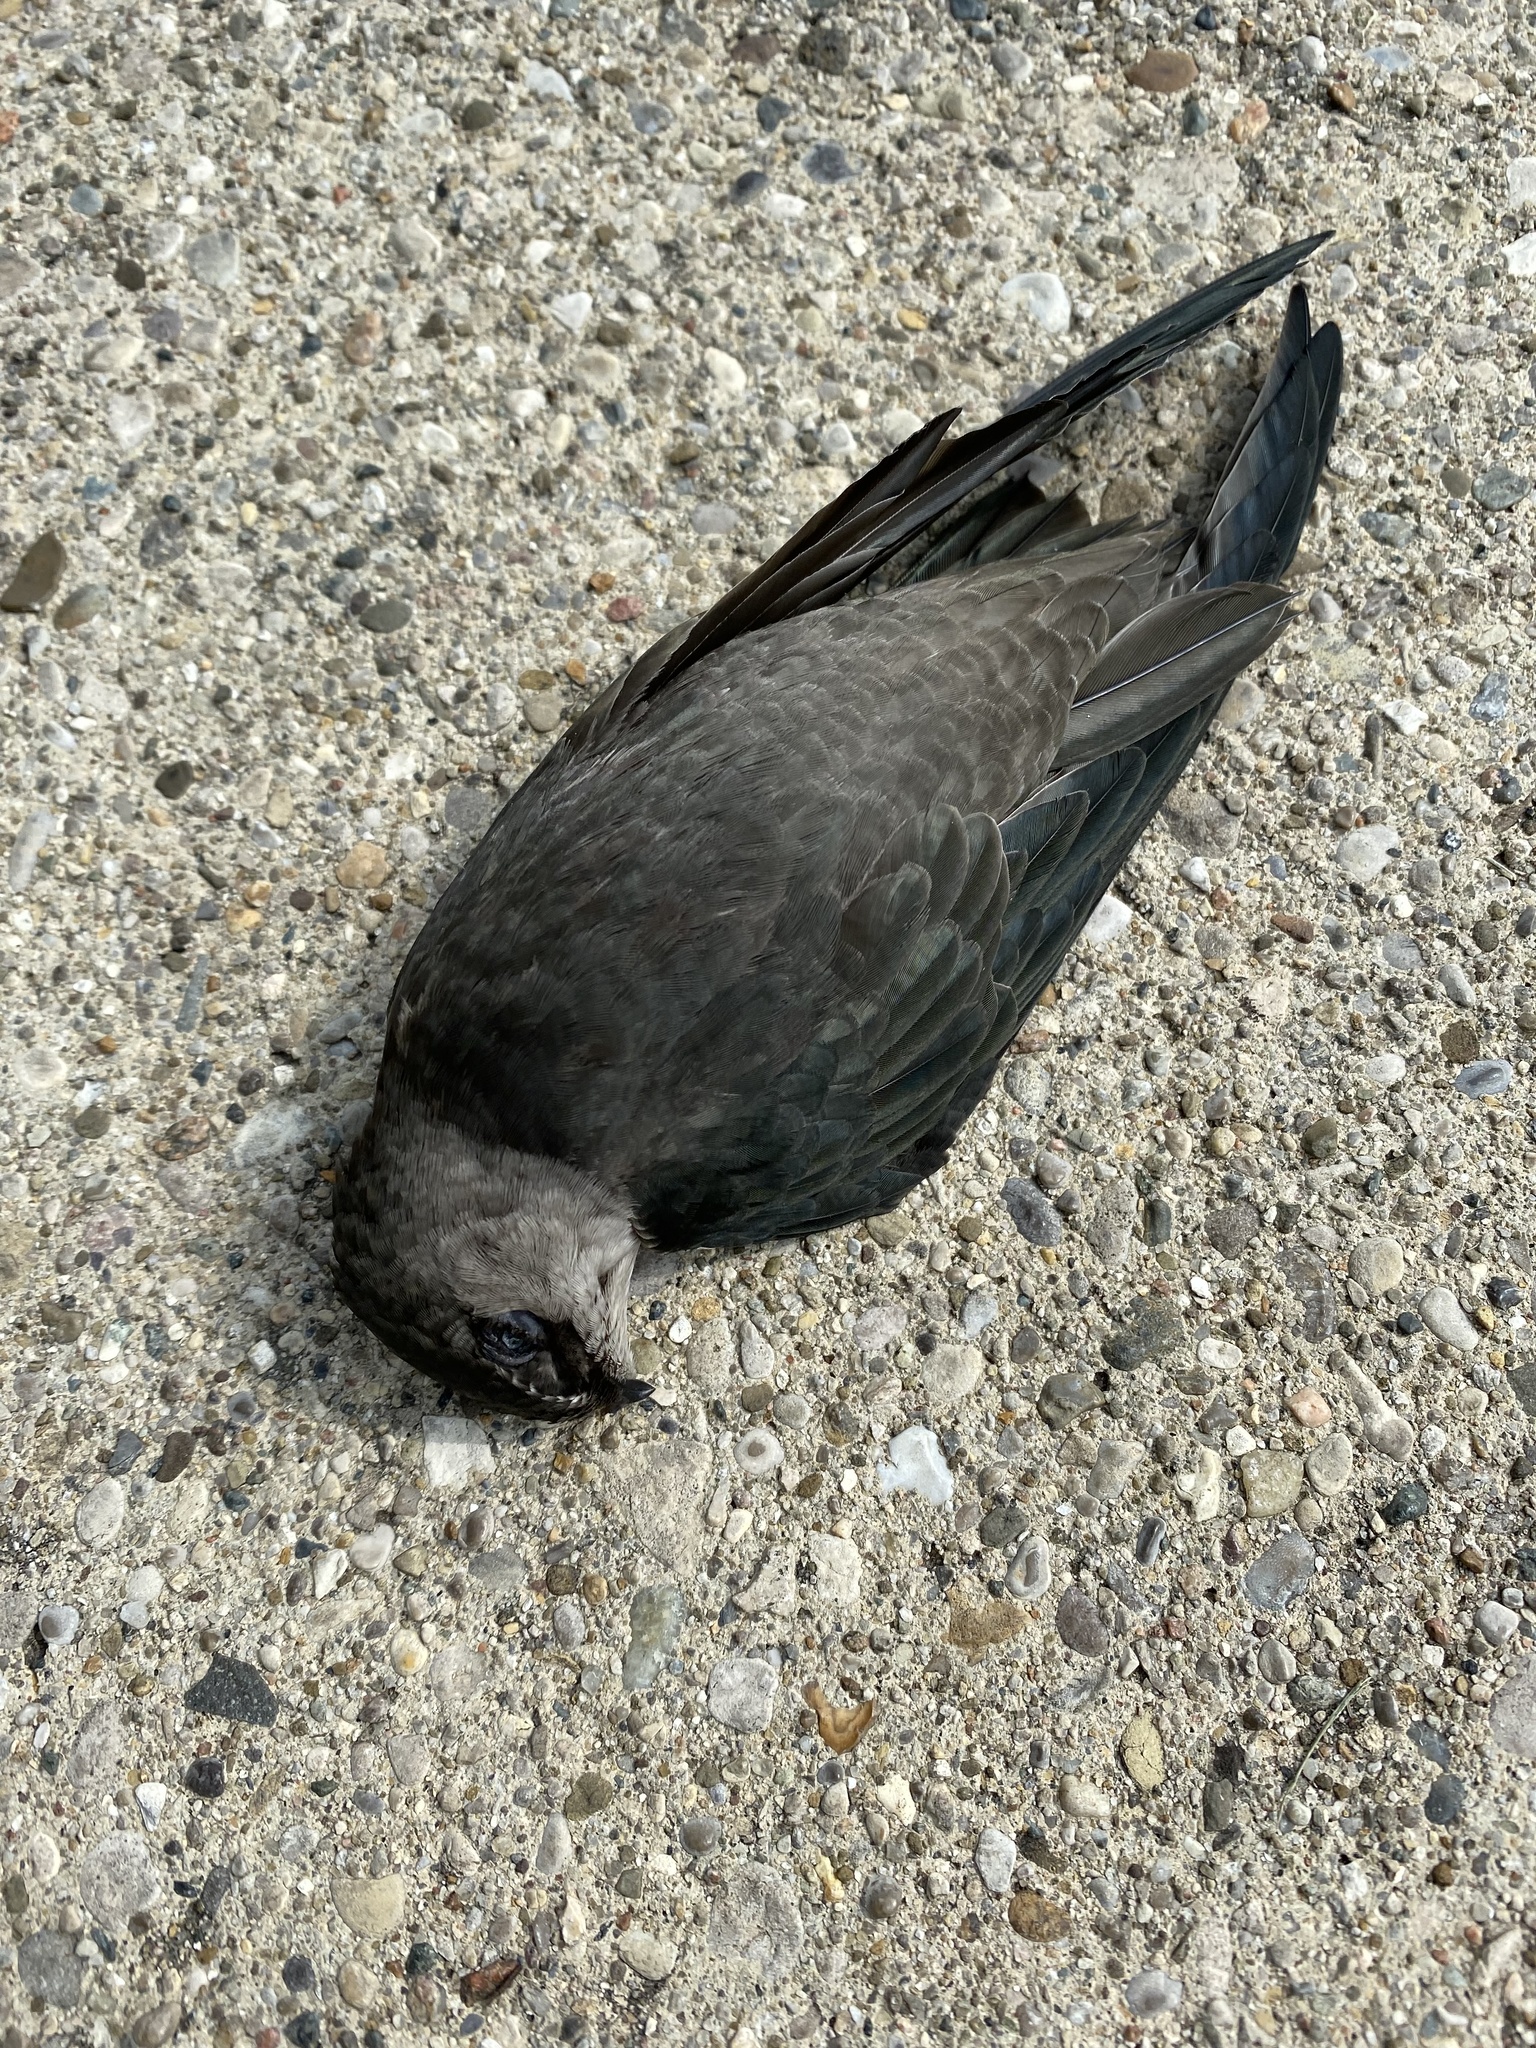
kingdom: Animalia
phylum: Chordata
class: Aves
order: Apodiformes
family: Apodidae
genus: Chaetura
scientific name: Chaetura pelagica
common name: Chimney swift
